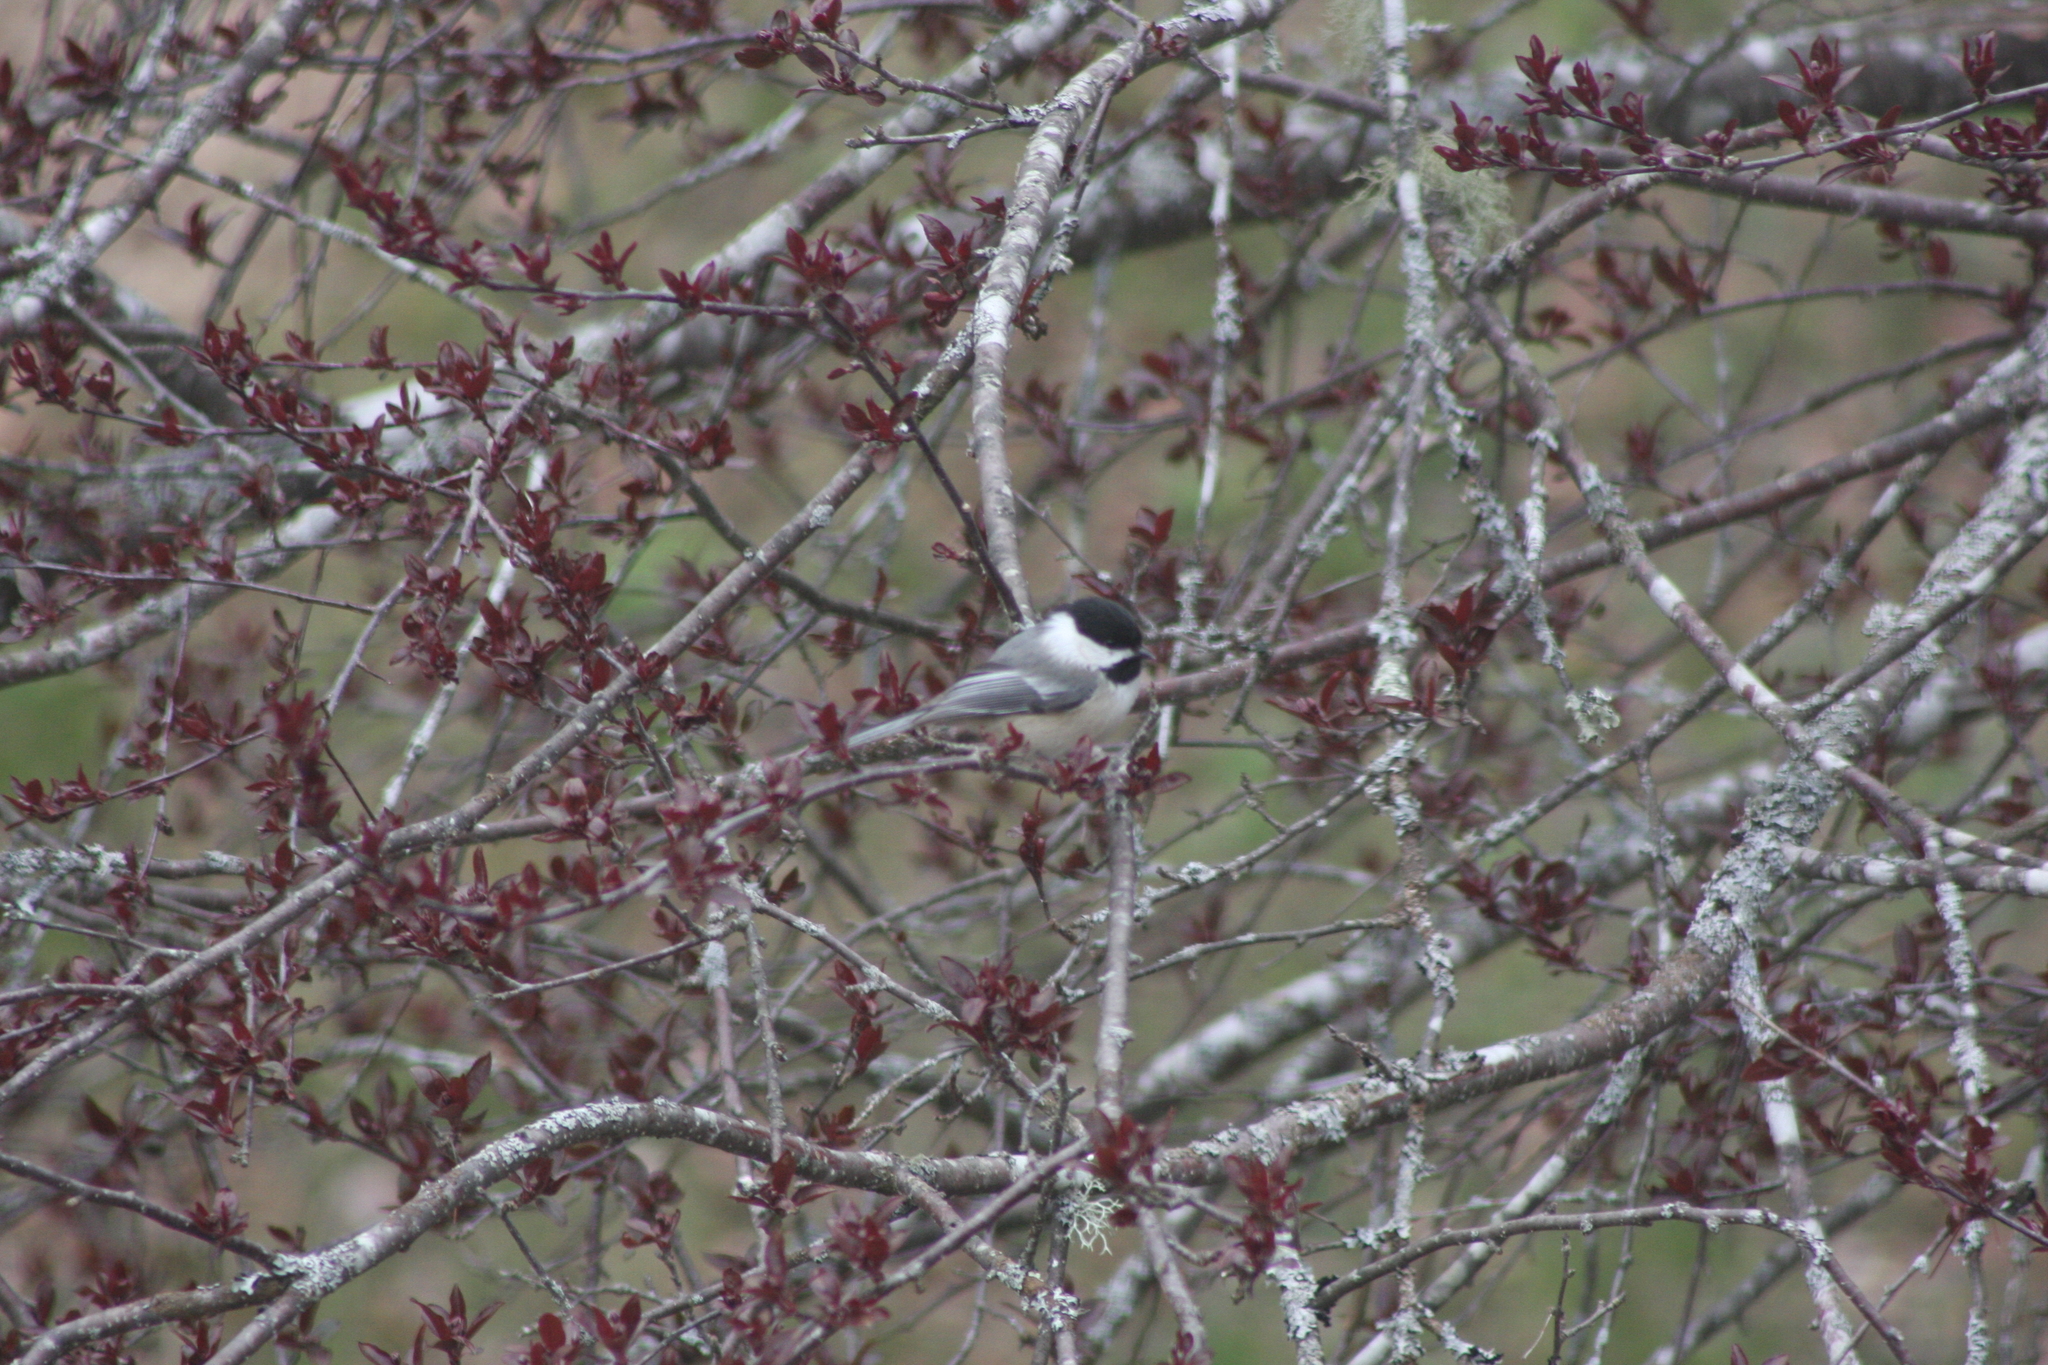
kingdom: Animalia
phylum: Chordata
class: Aves
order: Passeriformes
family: Paridae
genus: Poecile
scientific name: Poecile atricapillus
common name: Black-capped chickadee
